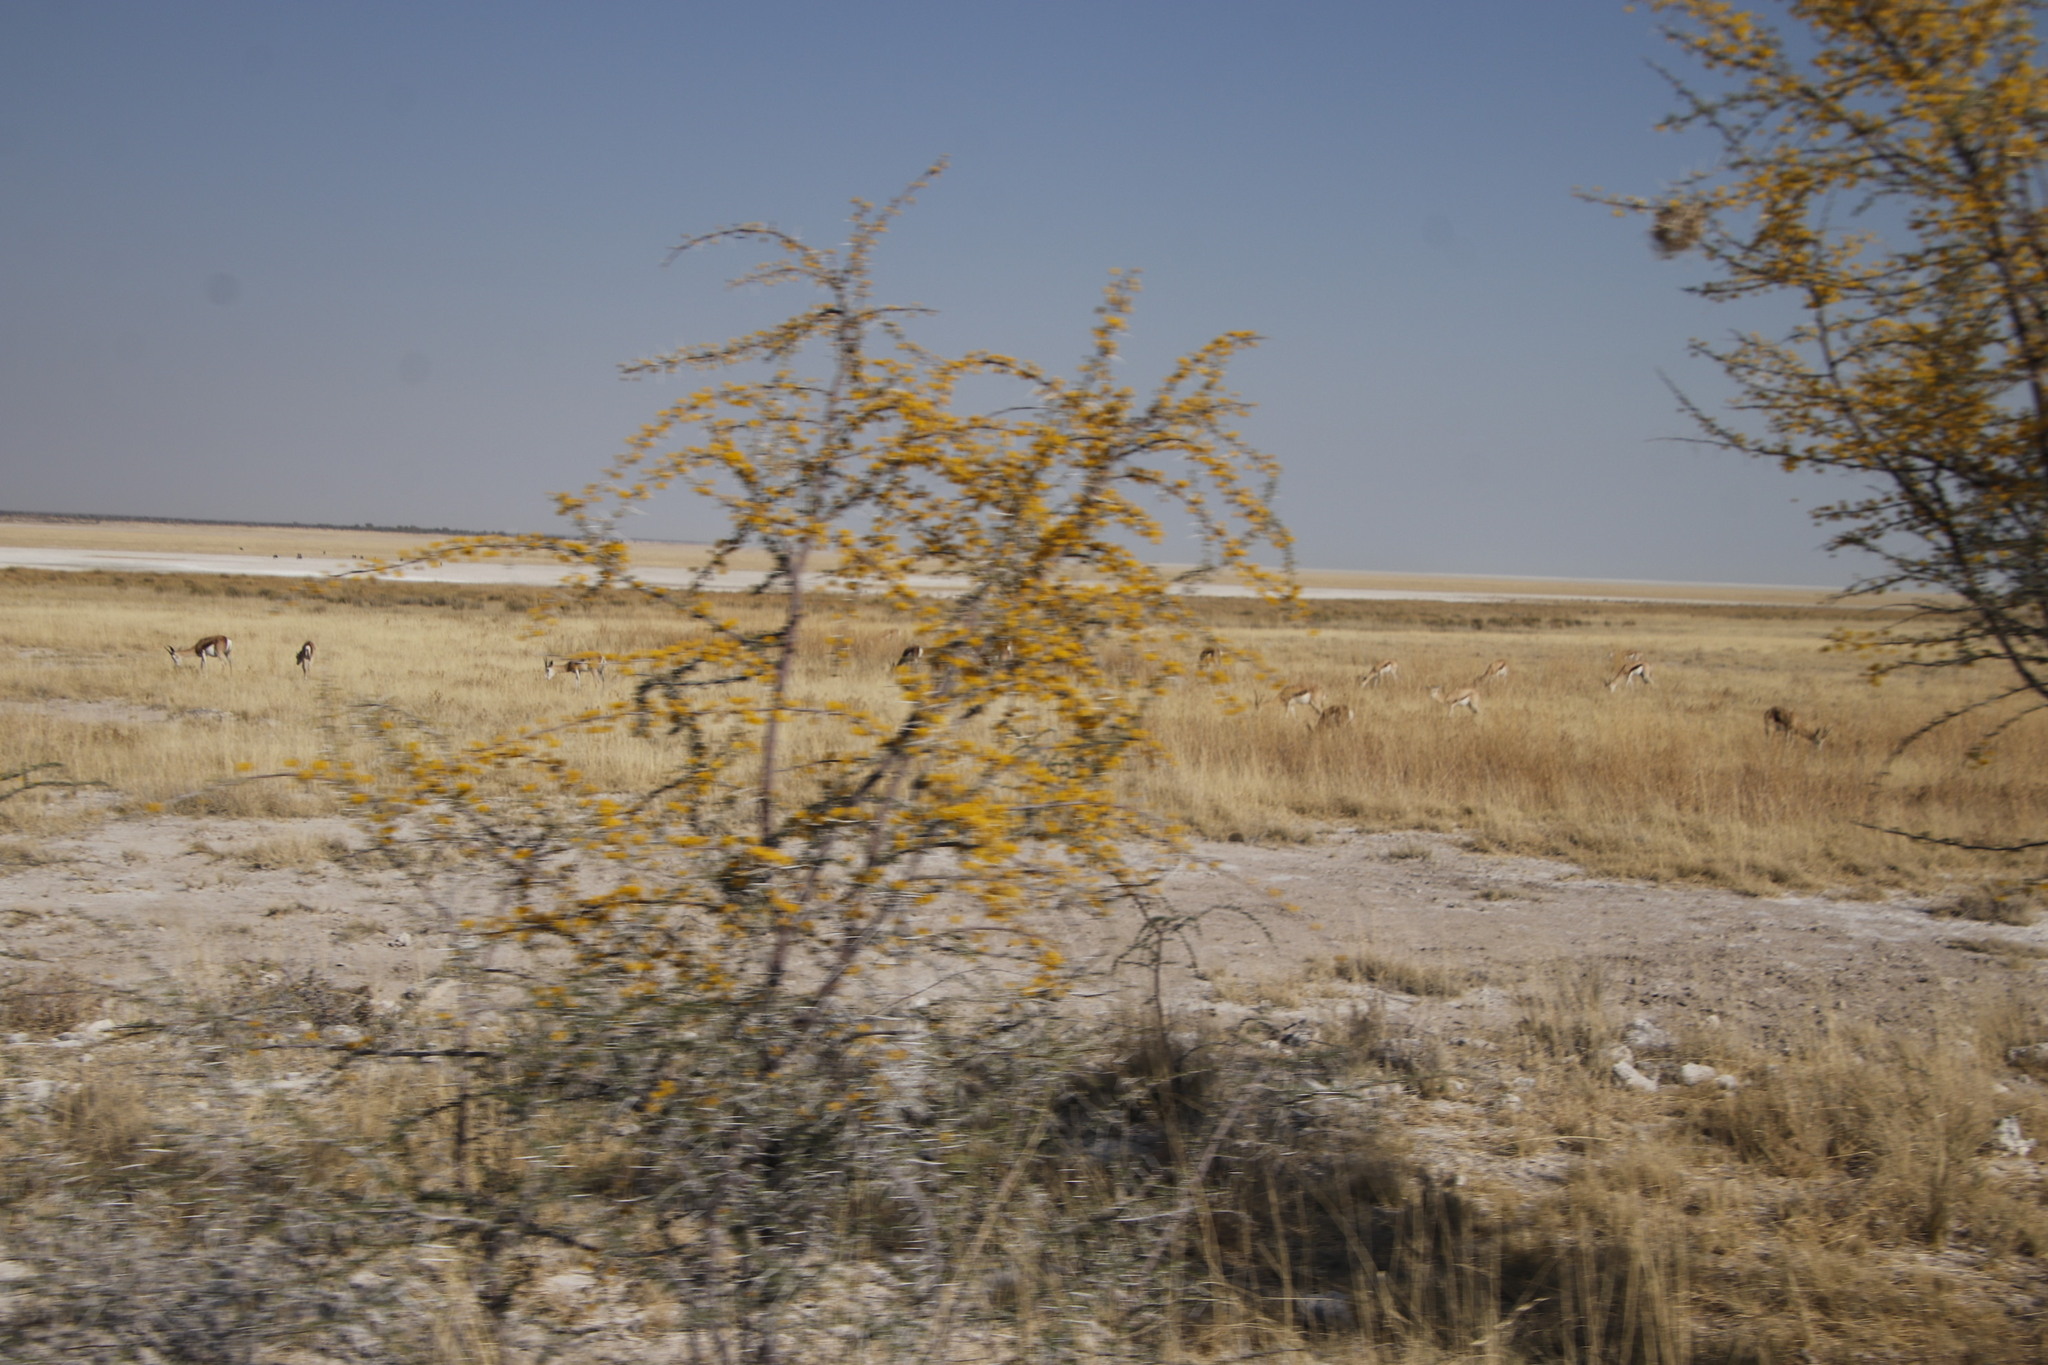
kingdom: Animalia
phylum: Chordata
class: Mammalia
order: Artiodactyla
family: Bovidae
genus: Antidorcas
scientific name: Antidorcas marsupialis
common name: Springbok
